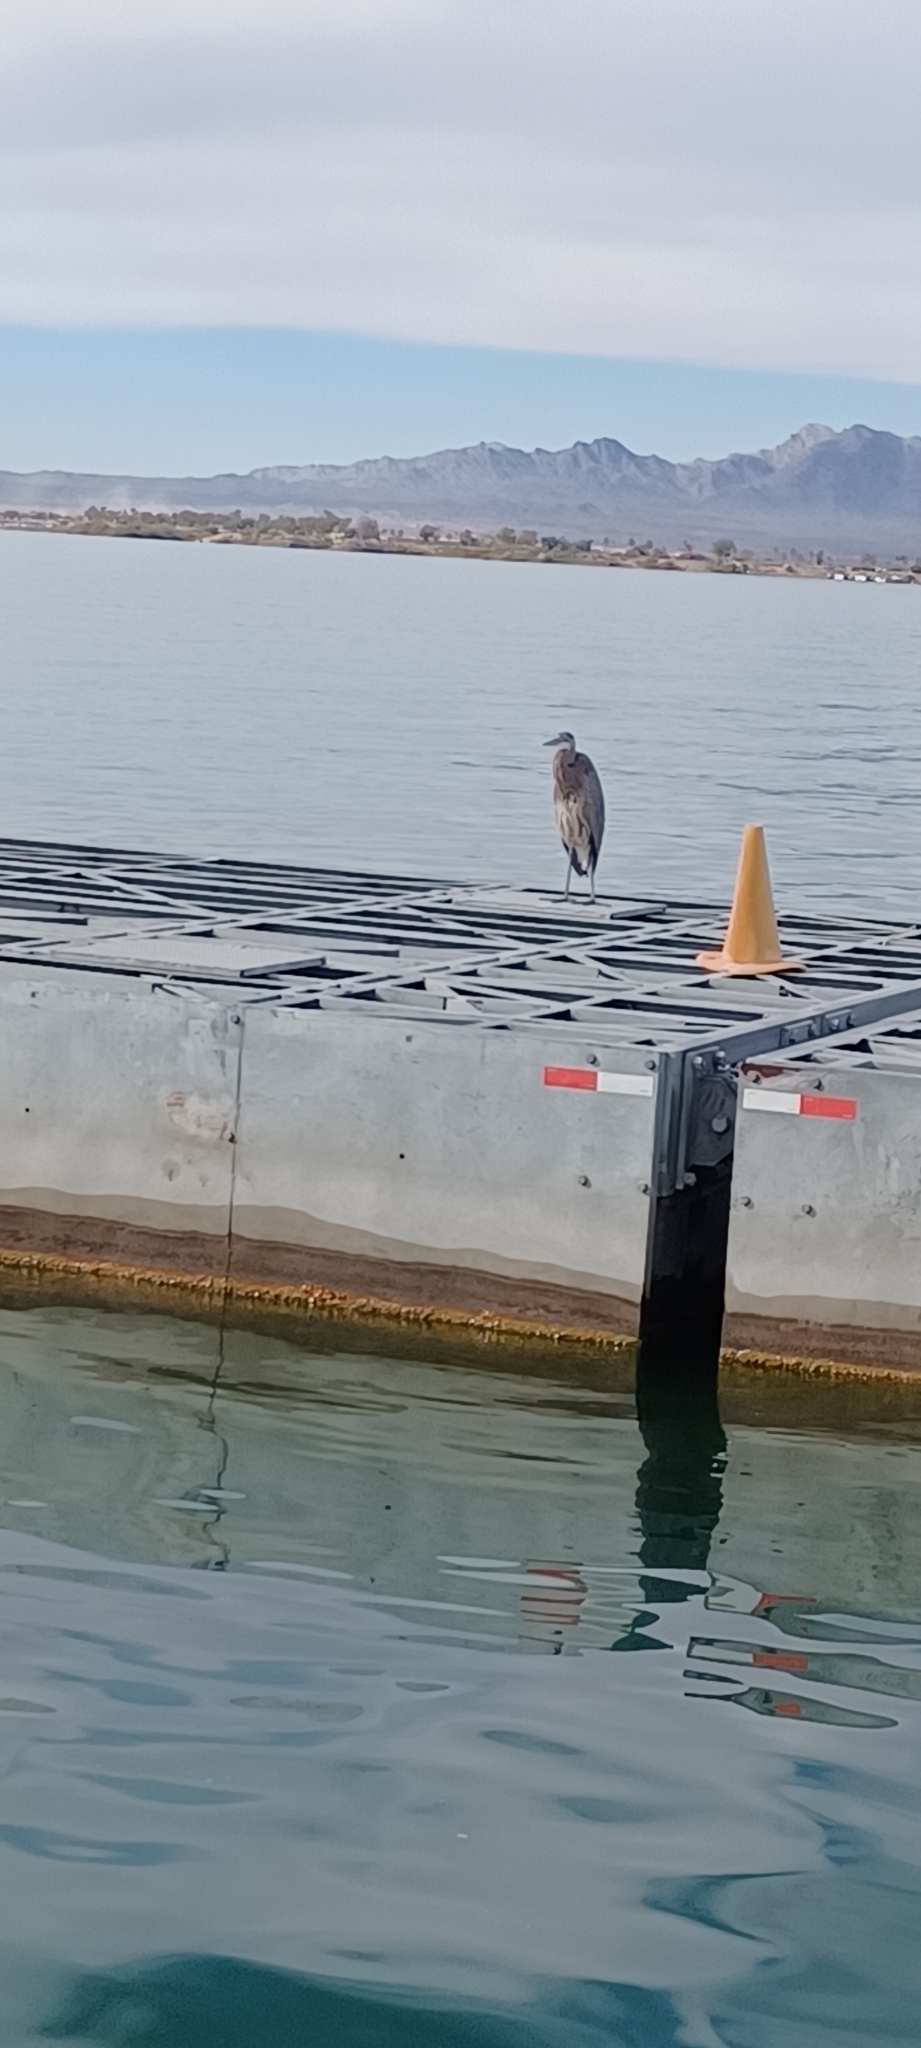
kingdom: Animalia
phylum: Chordata
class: Aves
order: Pelecaniformes
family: Ardeidae
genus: Ardea
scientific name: Ardea herodias
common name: Great blue heron
